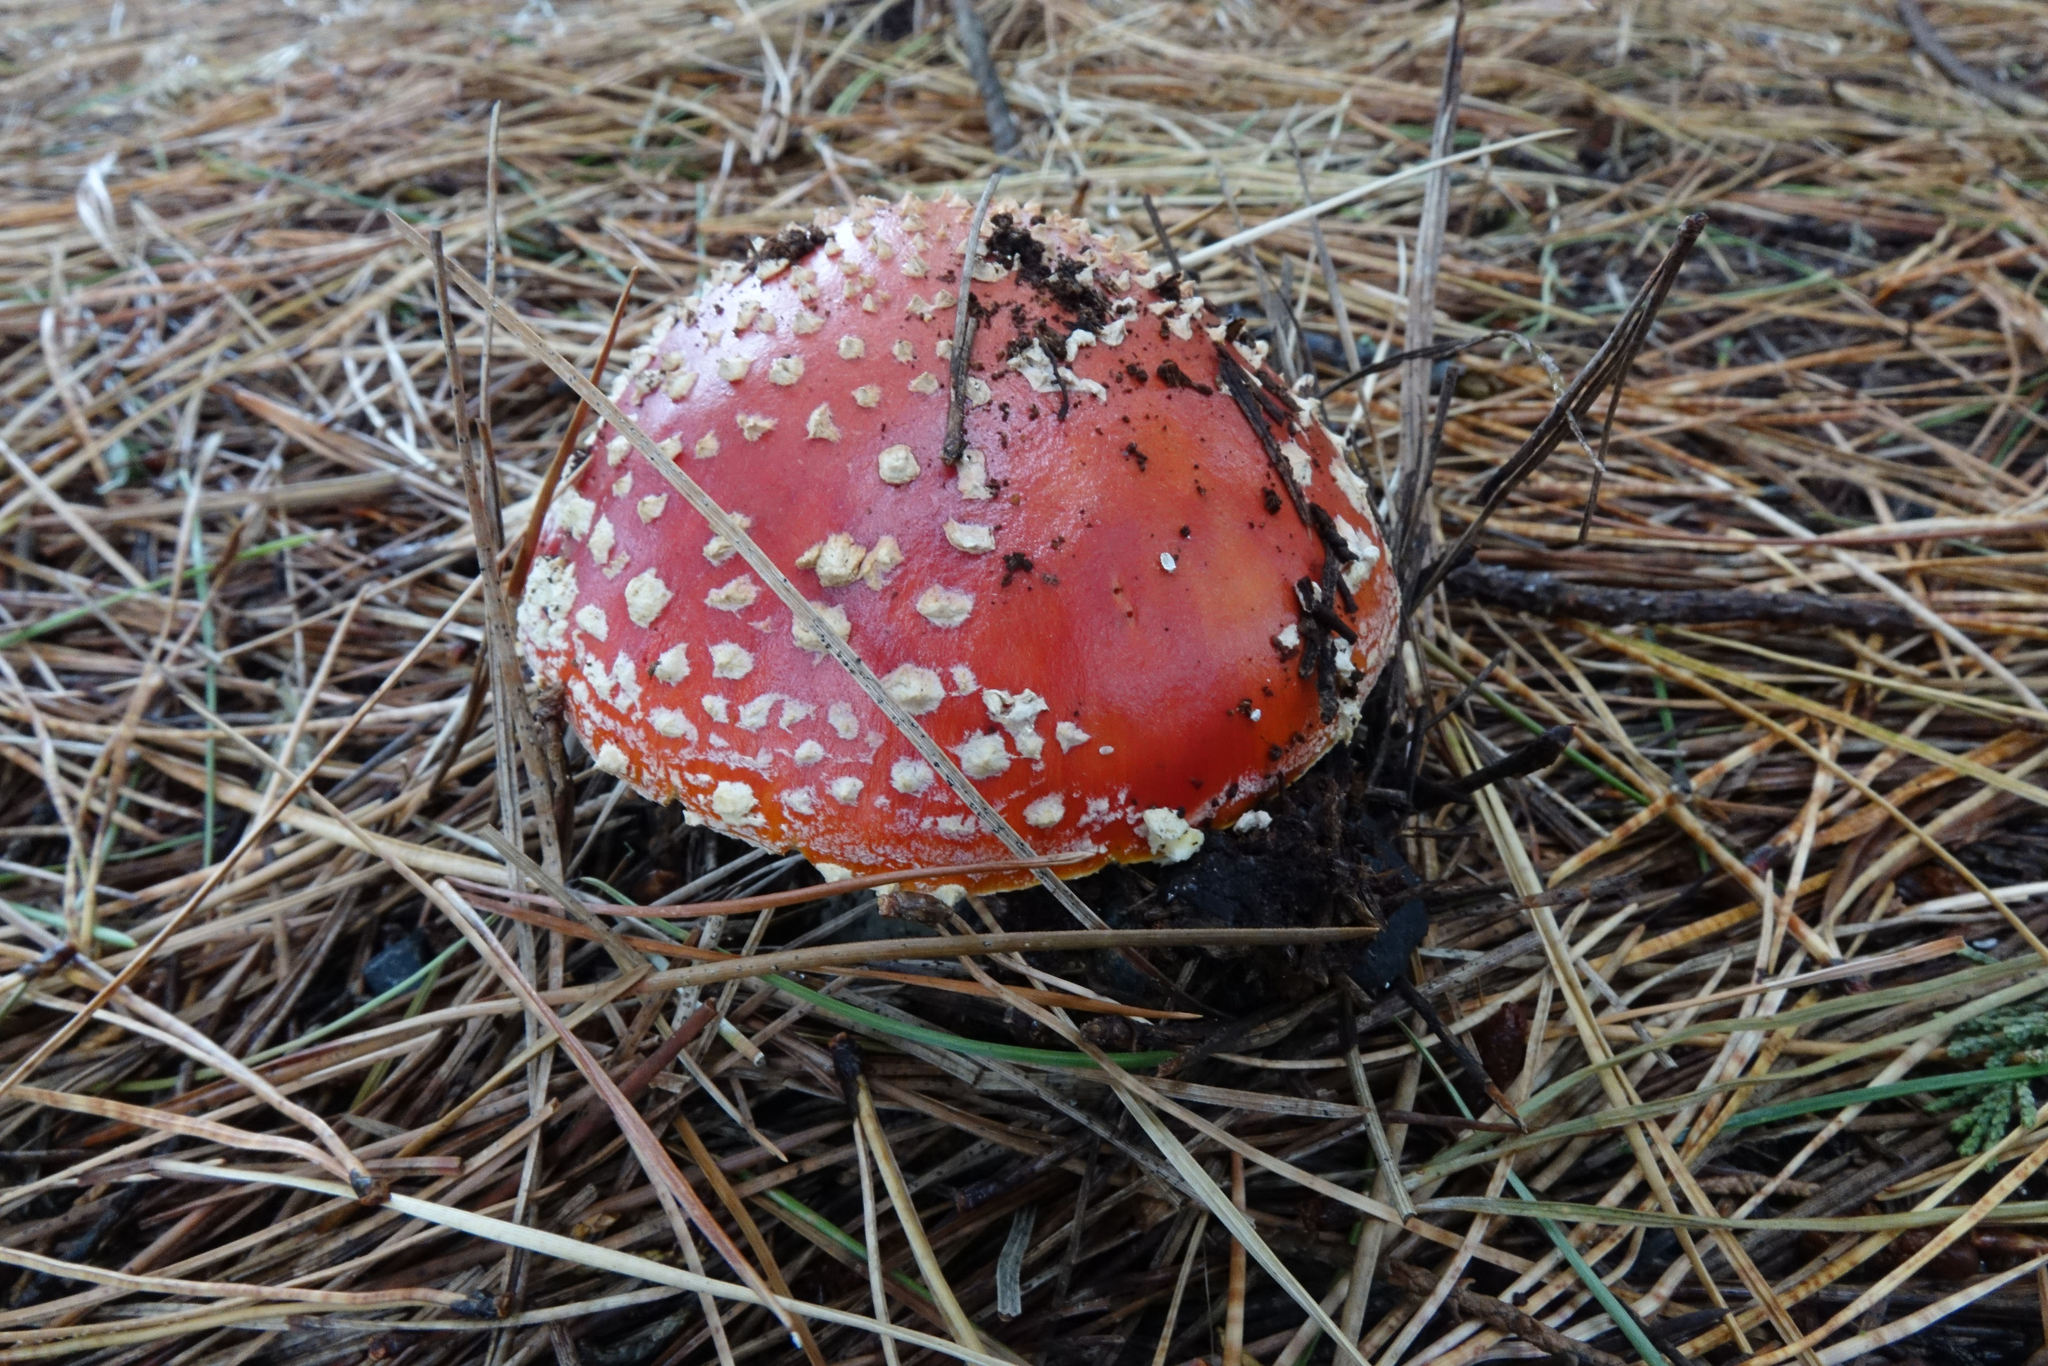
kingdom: Fungi
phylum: Basidiomycota
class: Agaricomycetes
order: Agaricales
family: Amanitaceae
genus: Amanita
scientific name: Amanita muscaria
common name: Fly agaric
